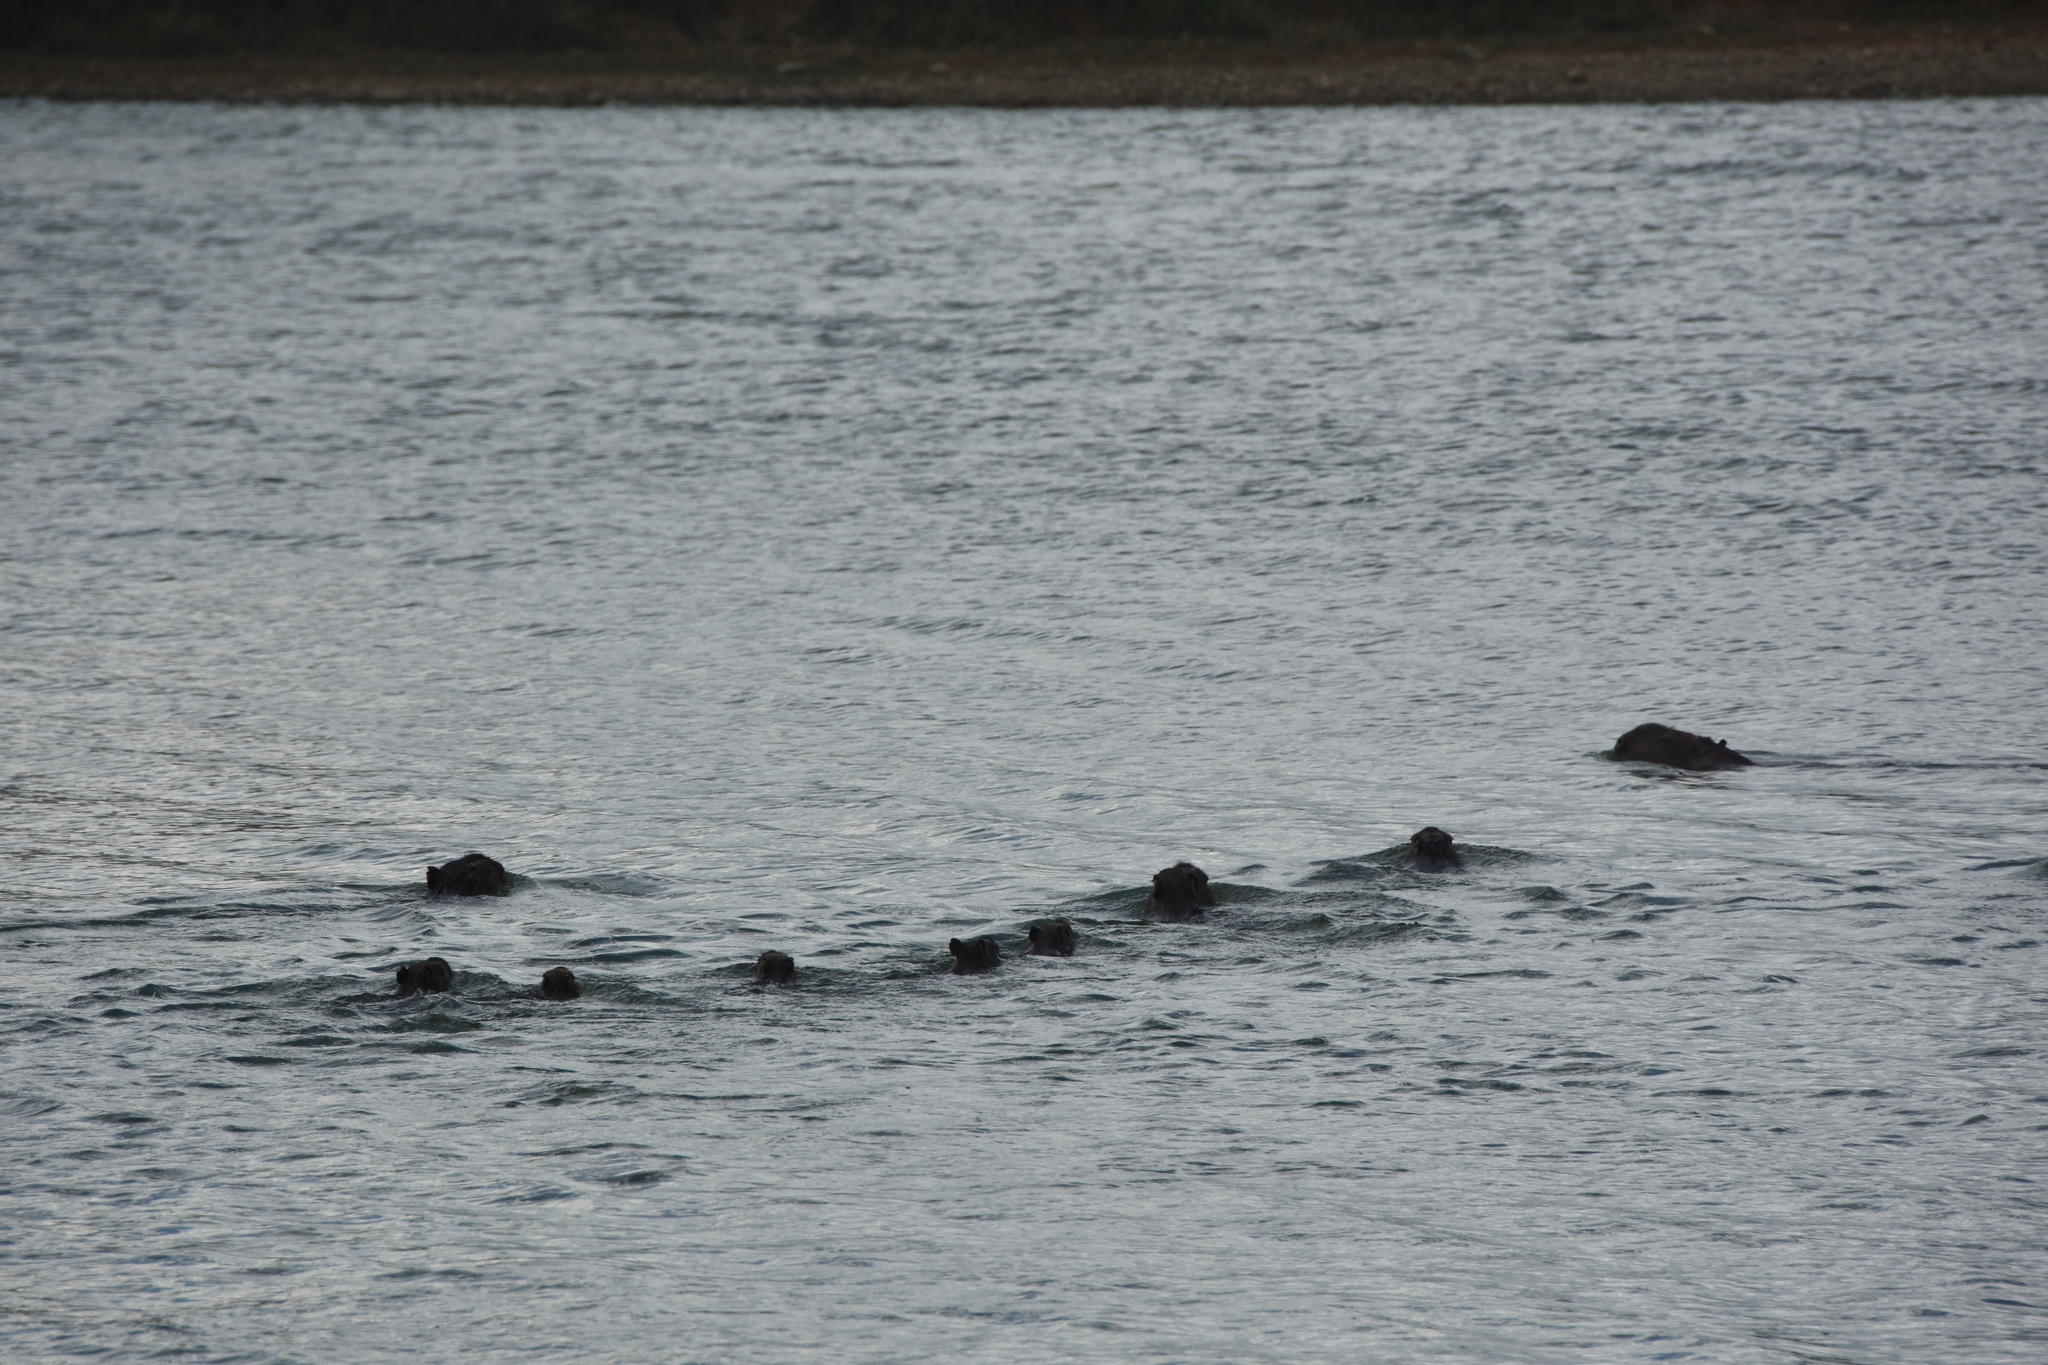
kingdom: Animalia
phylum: Chordata
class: Mammalia
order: Rodentia
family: Caviidae
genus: Hydrochoerus
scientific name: Hydrochoerus hydrochaeris
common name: Capybara
